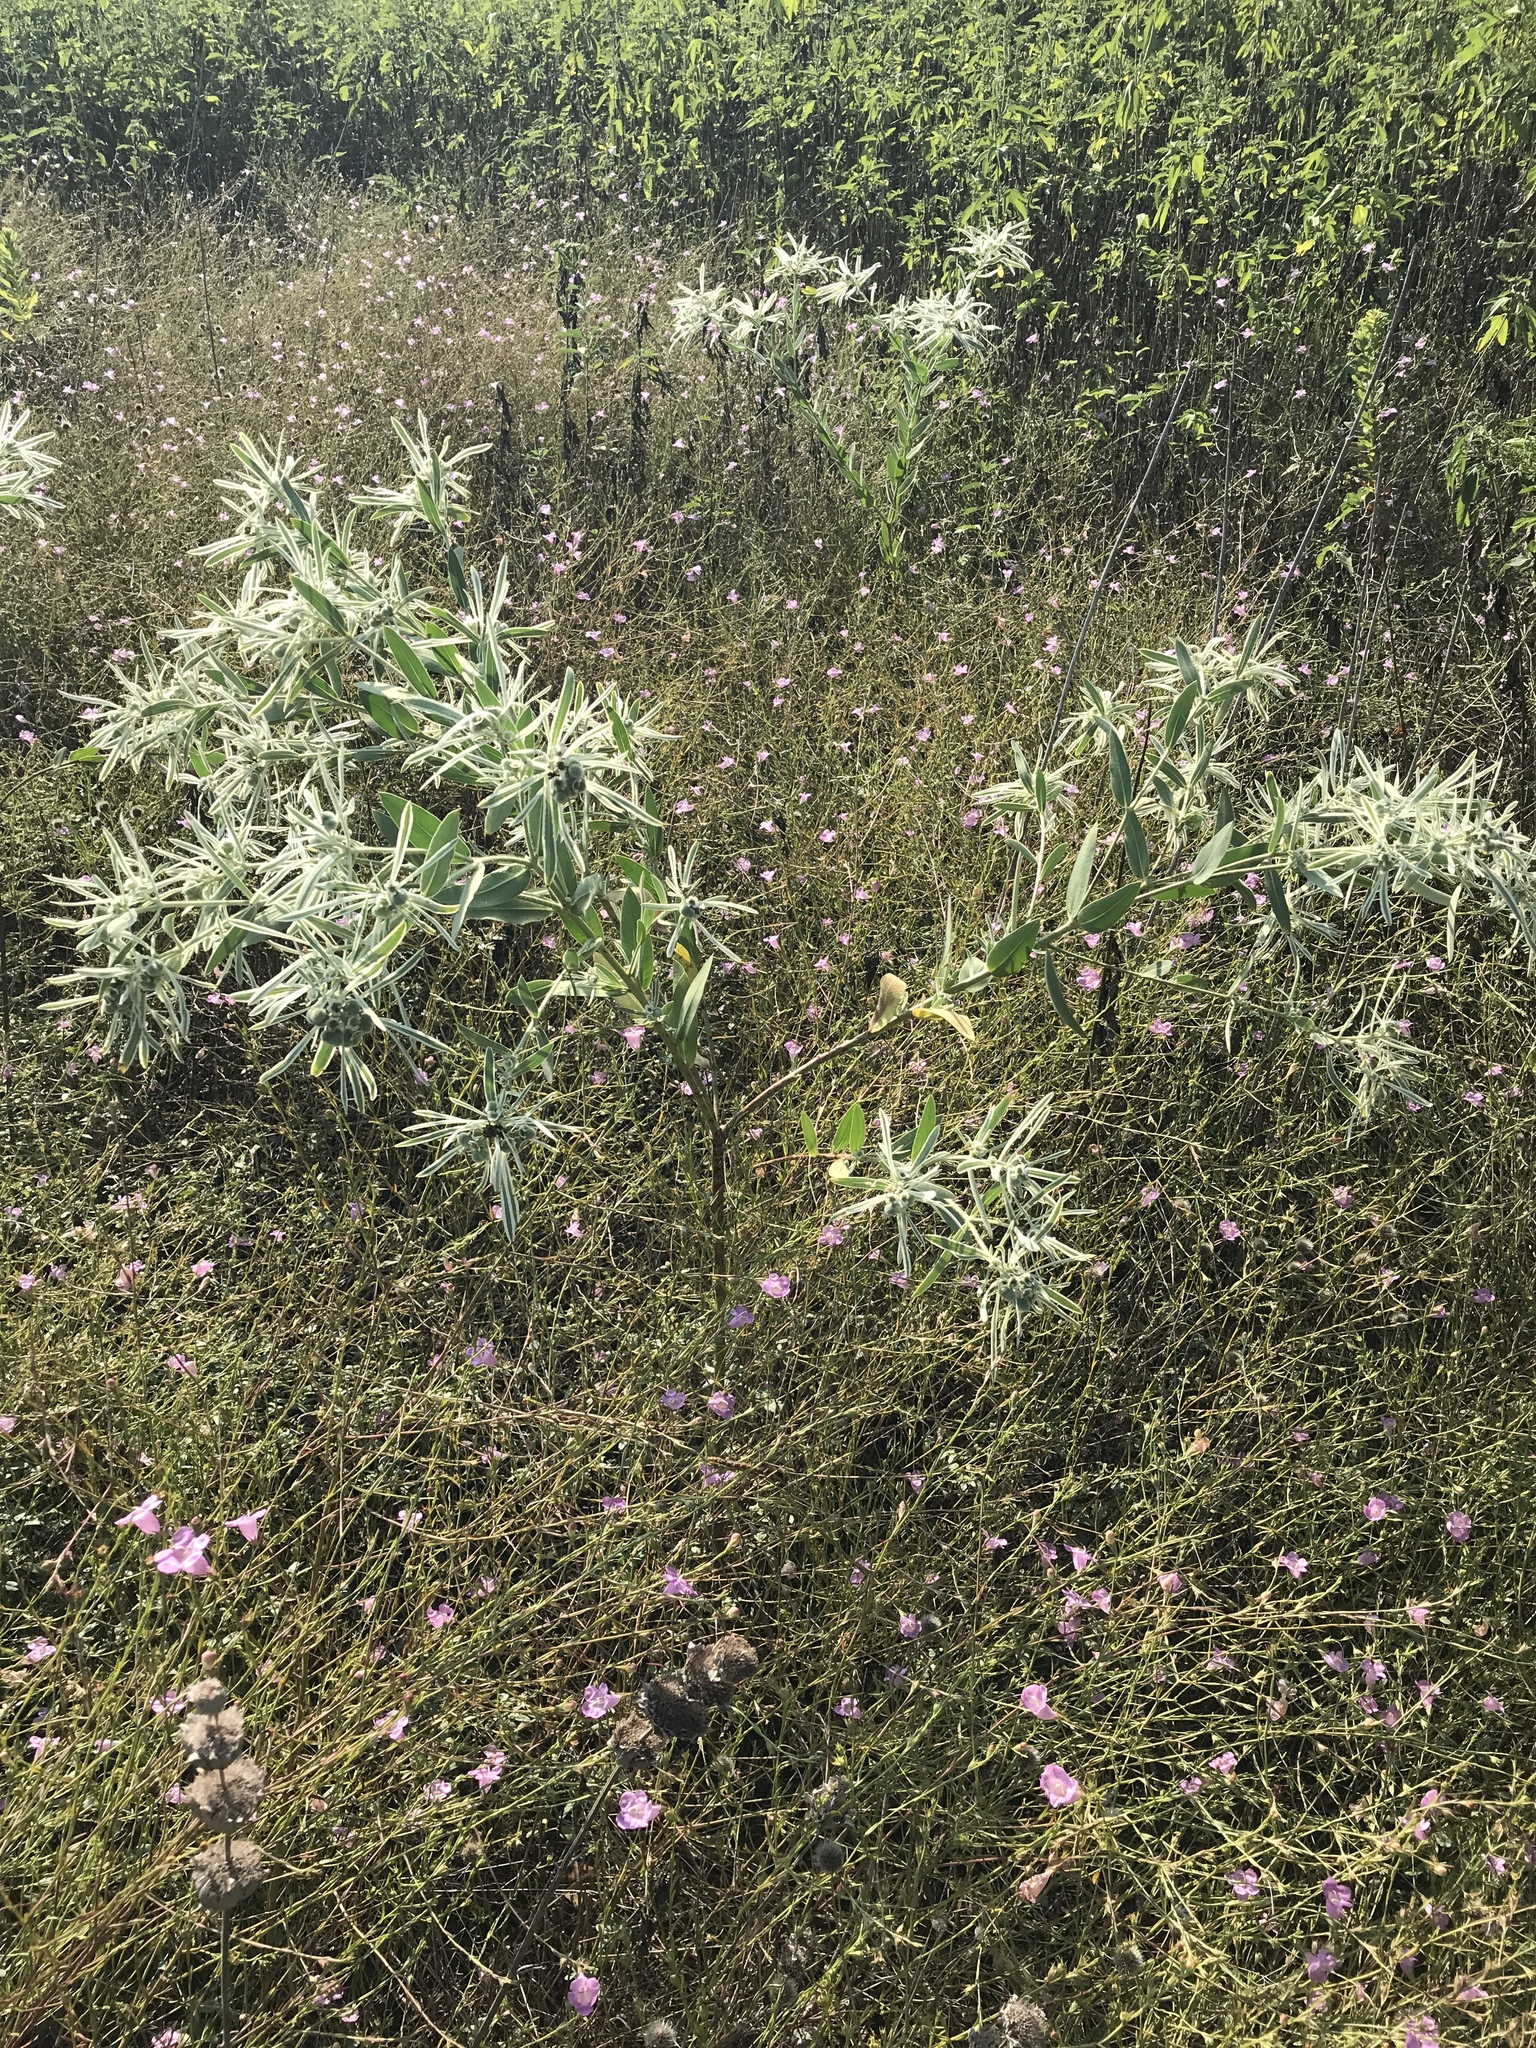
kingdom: Plantae
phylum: Tracheophyta
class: Magnoliopsida
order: Malpighiales
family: Euphorbiaceae
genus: Euphorbia
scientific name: Euphorbia bicolor
